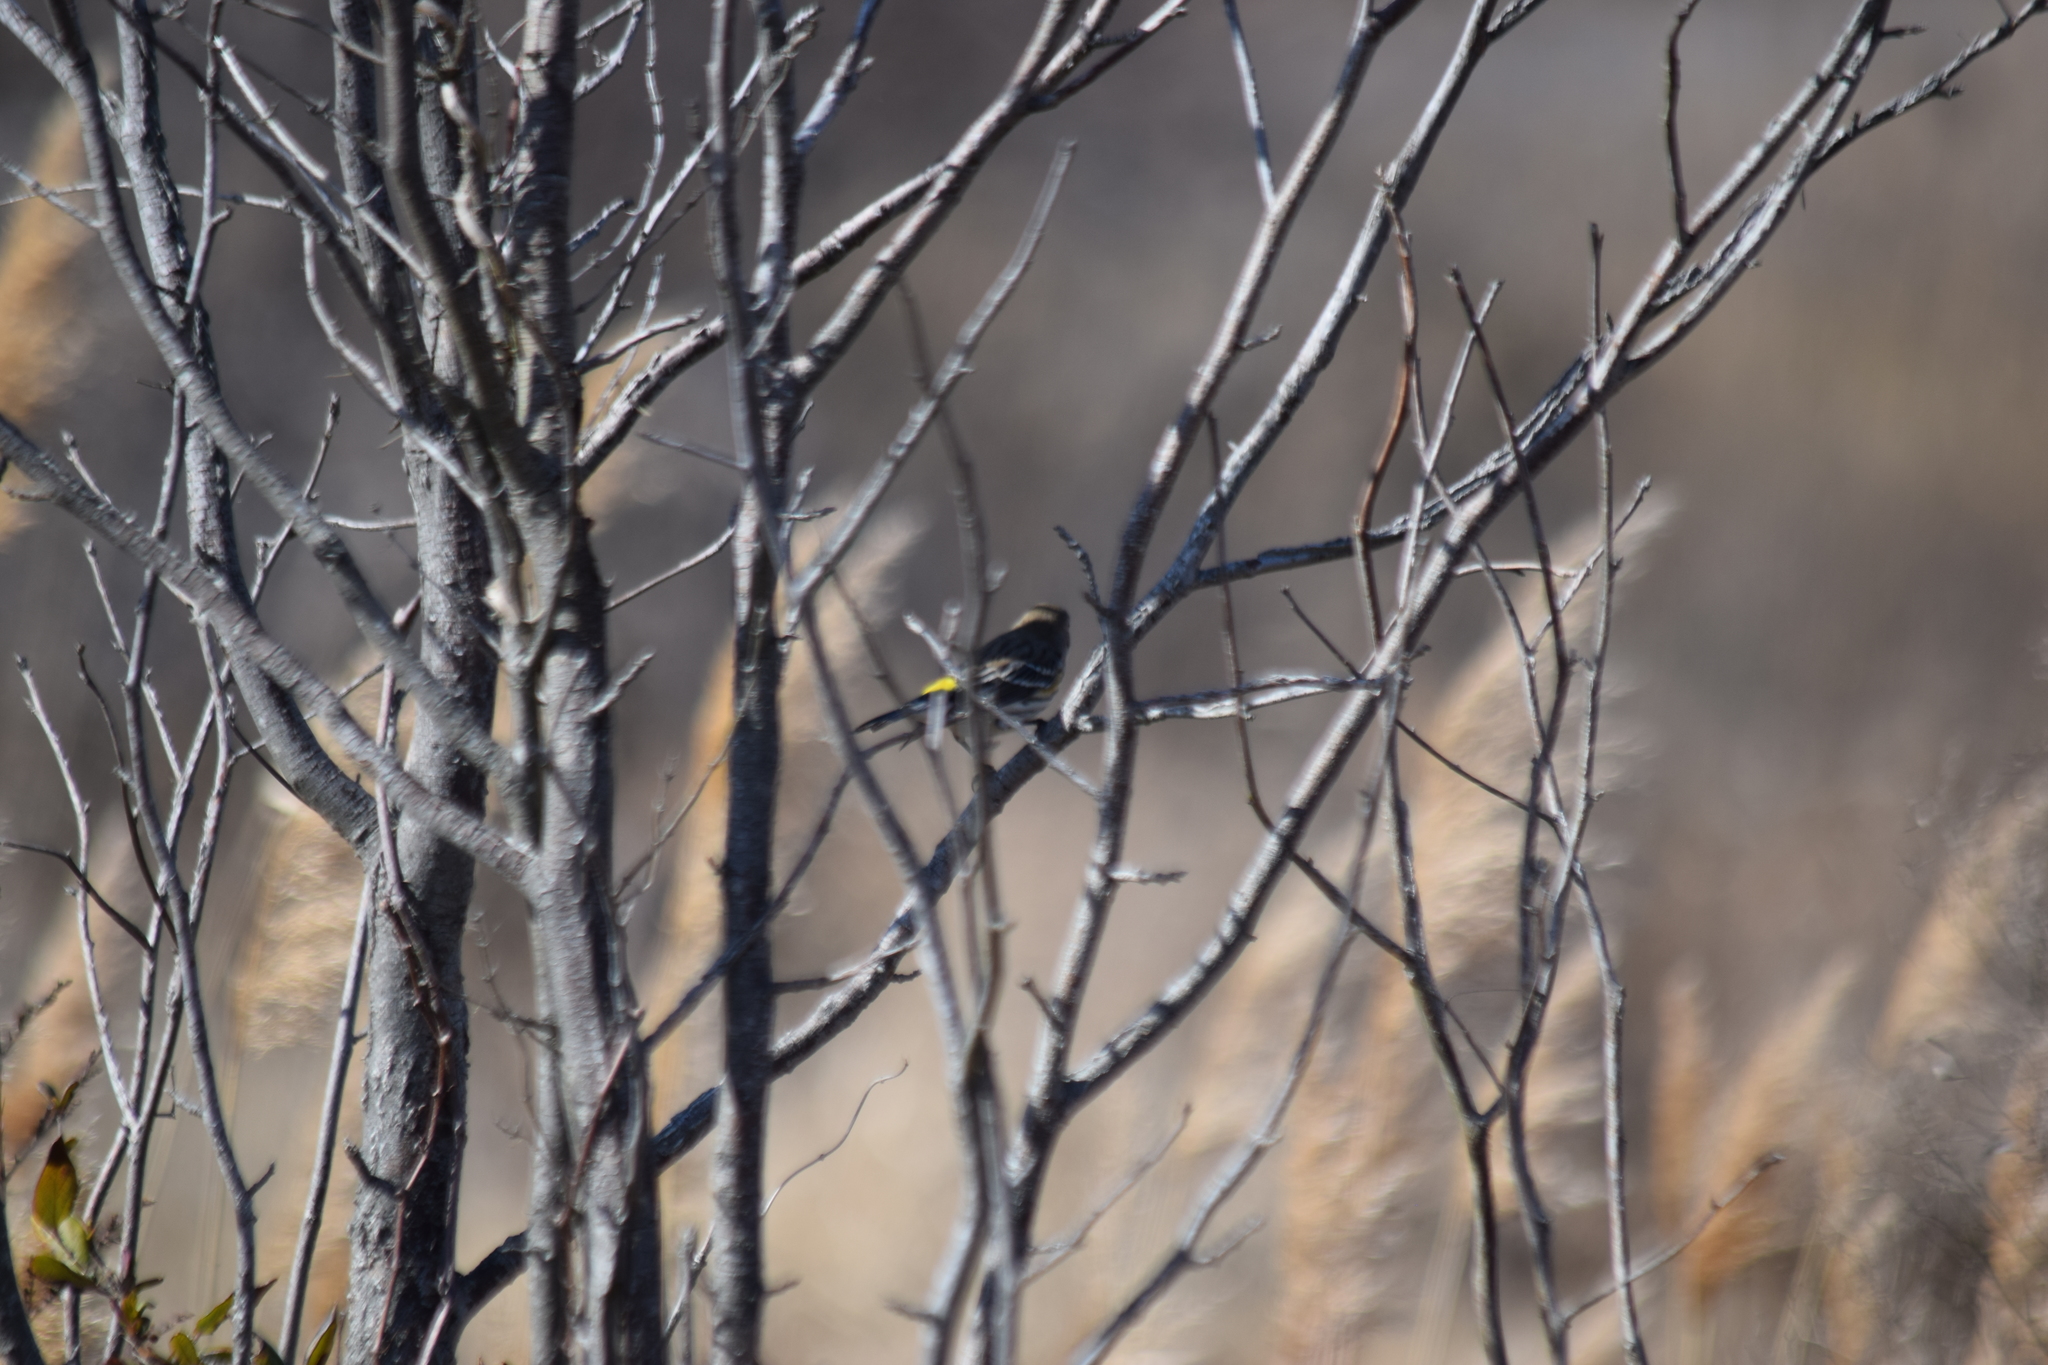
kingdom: Animalia
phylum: Chordata
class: Aves
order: Passeriformes
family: Parulidae
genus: Setophaga
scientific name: Setophaga coronata
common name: Myrtle warbler
